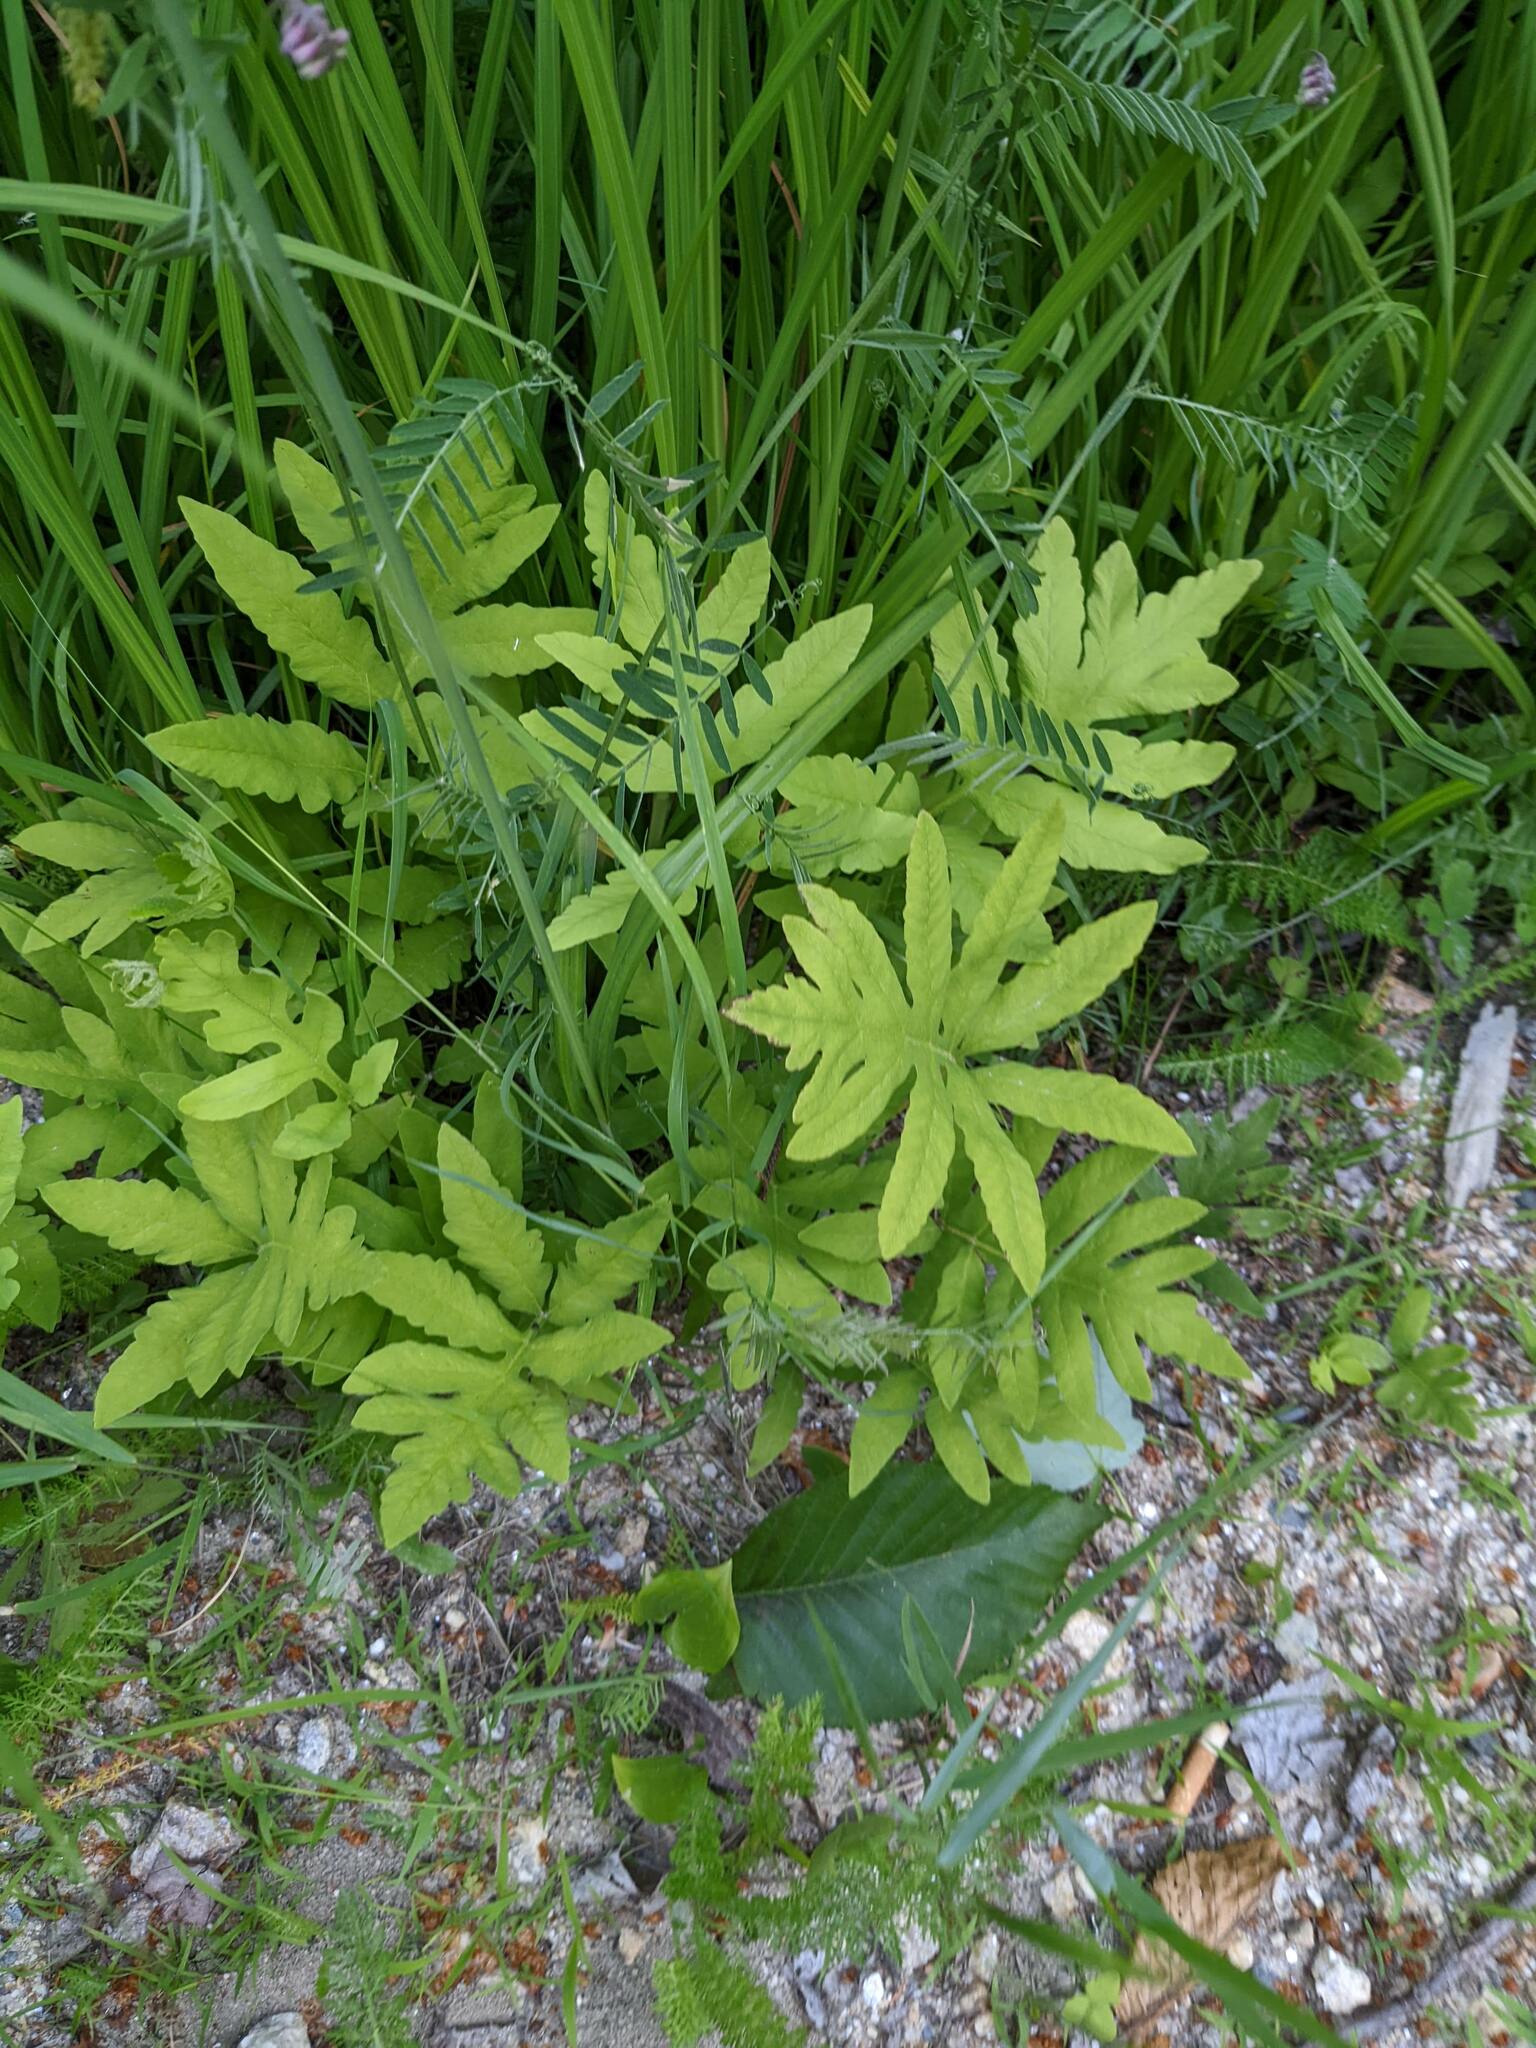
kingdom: Plantae
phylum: Tracheophyta
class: Polypodiopsida
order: Polypodiales
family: Onocleaceae
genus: Onoclea
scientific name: Onoclea sensibilis
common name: Sensitive fern
